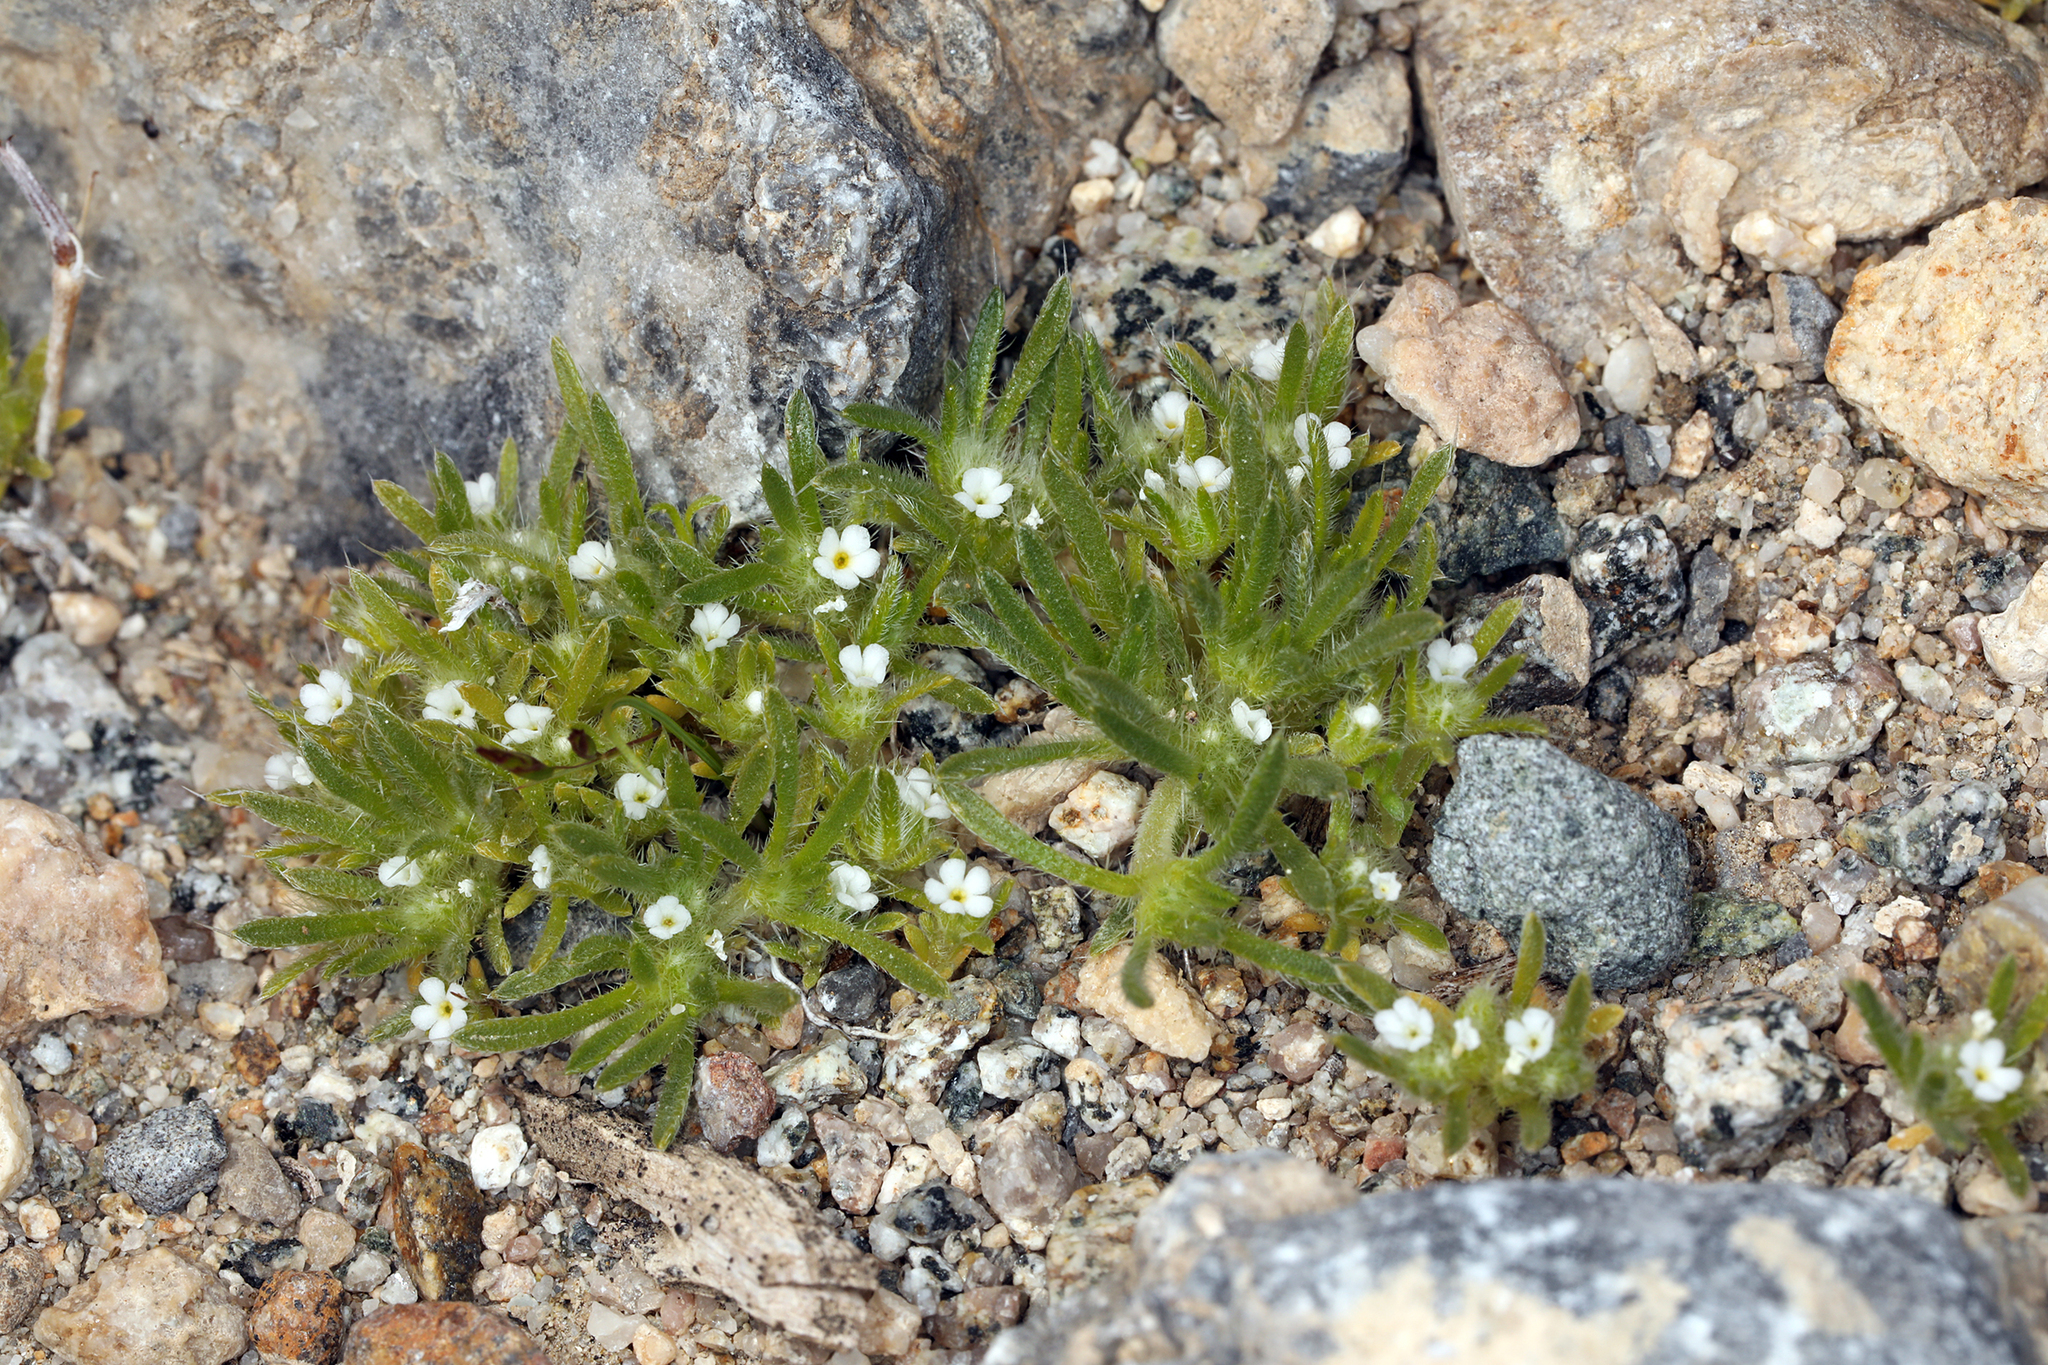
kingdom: Plantae
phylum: Tracheophyta
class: Magnoliopsida
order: Boraginales
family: Boraginaceae
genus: Greeneocharis
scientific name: Greeneocharis circumscissa
